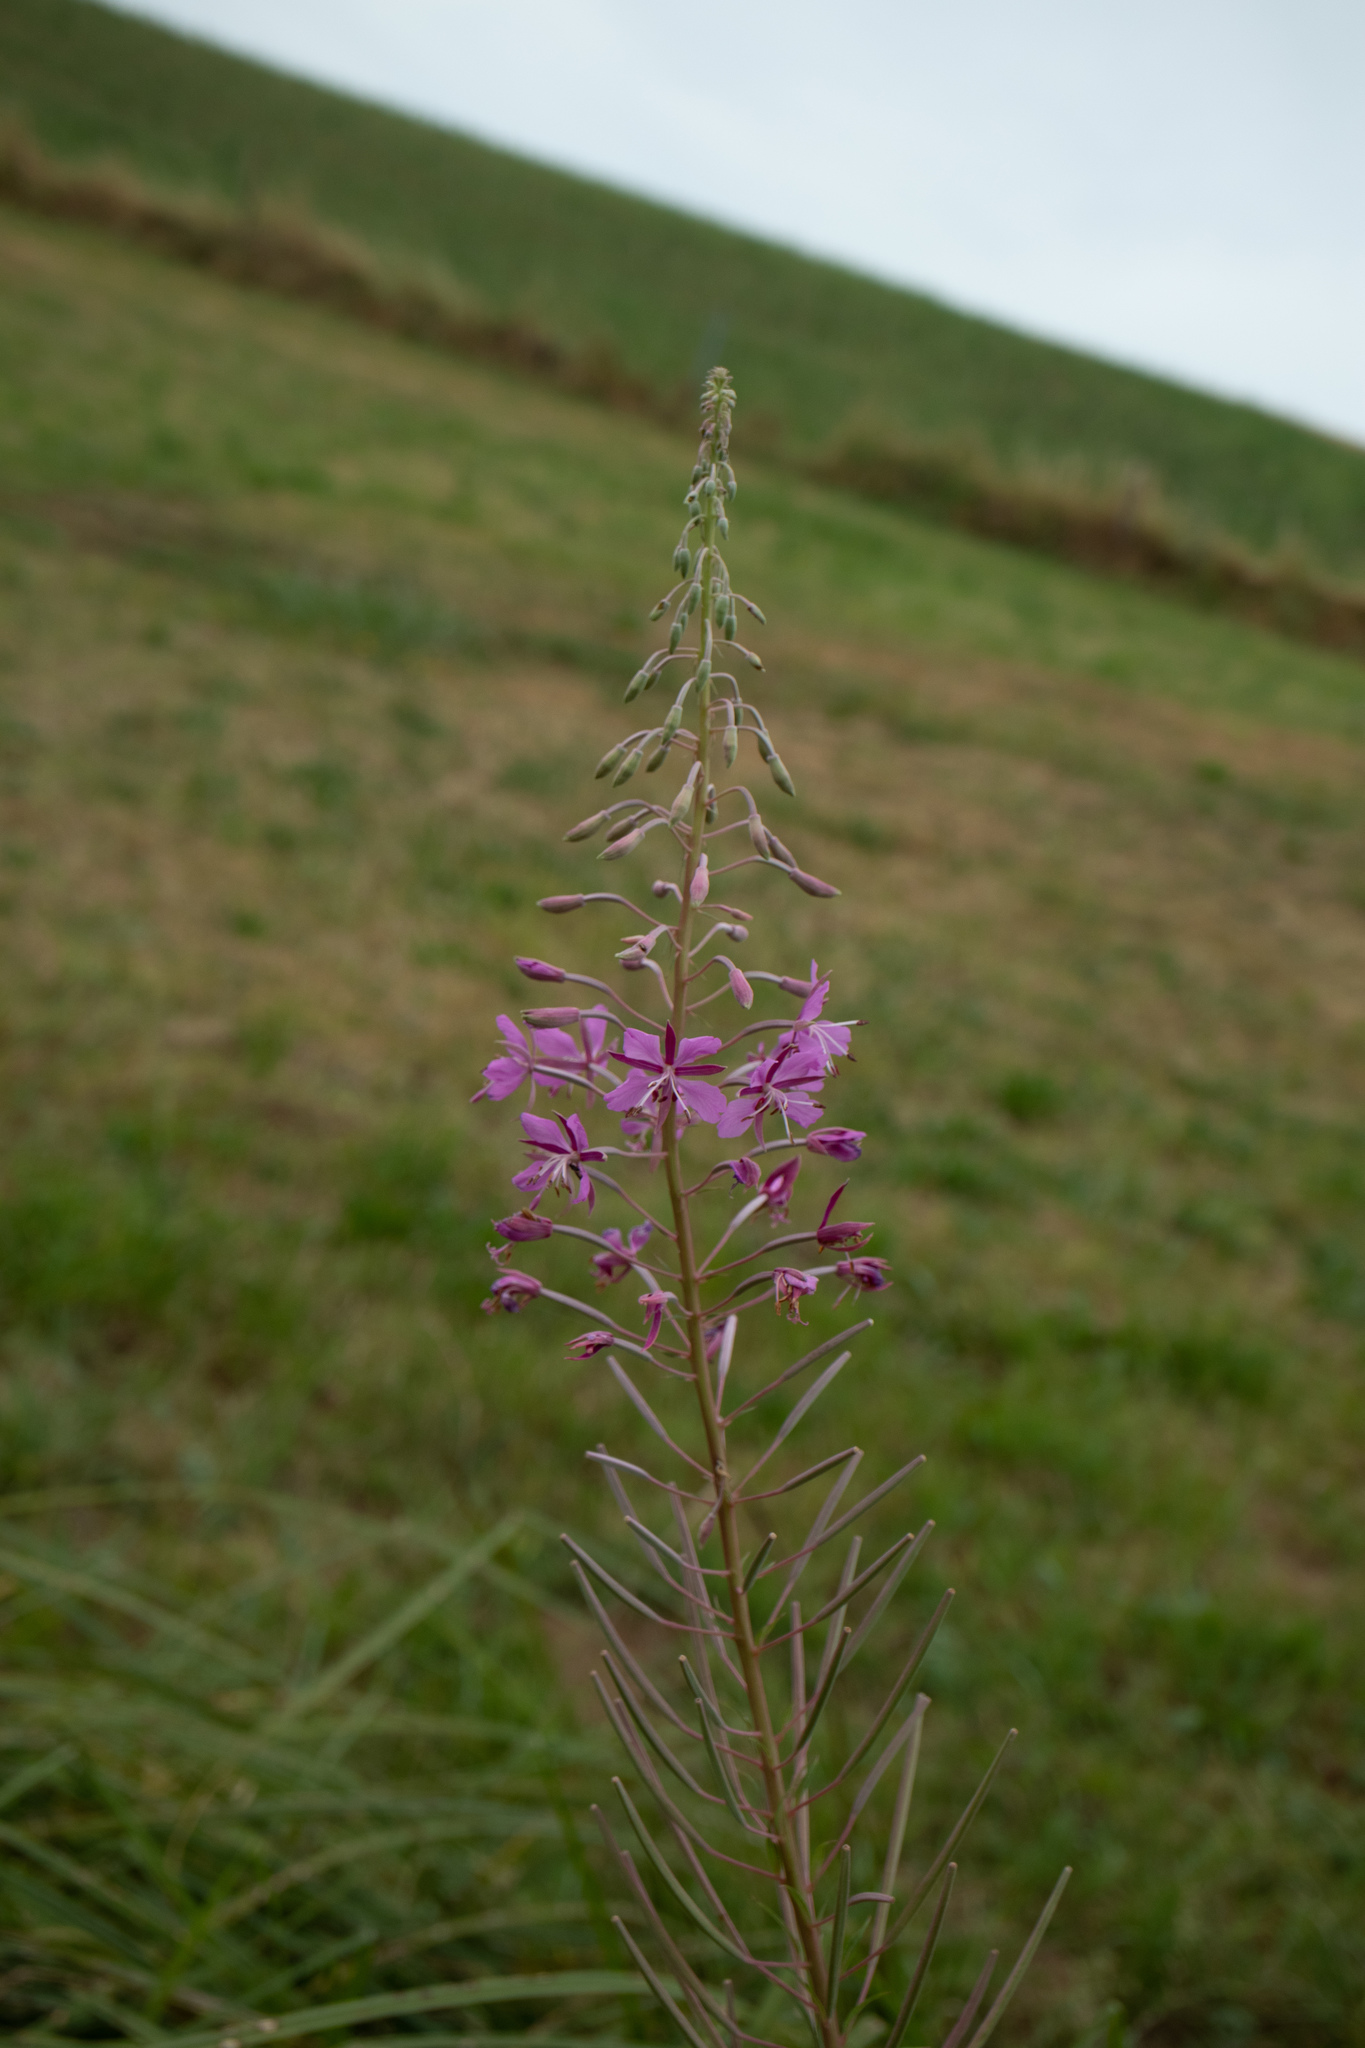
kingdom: Plantae
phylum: Tracheophyta
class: Magnoliopsida
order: Myrtales
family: Onagraceae
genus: Chamaenerion
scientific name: Chamaenerion angustifolium
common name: Fireweed
